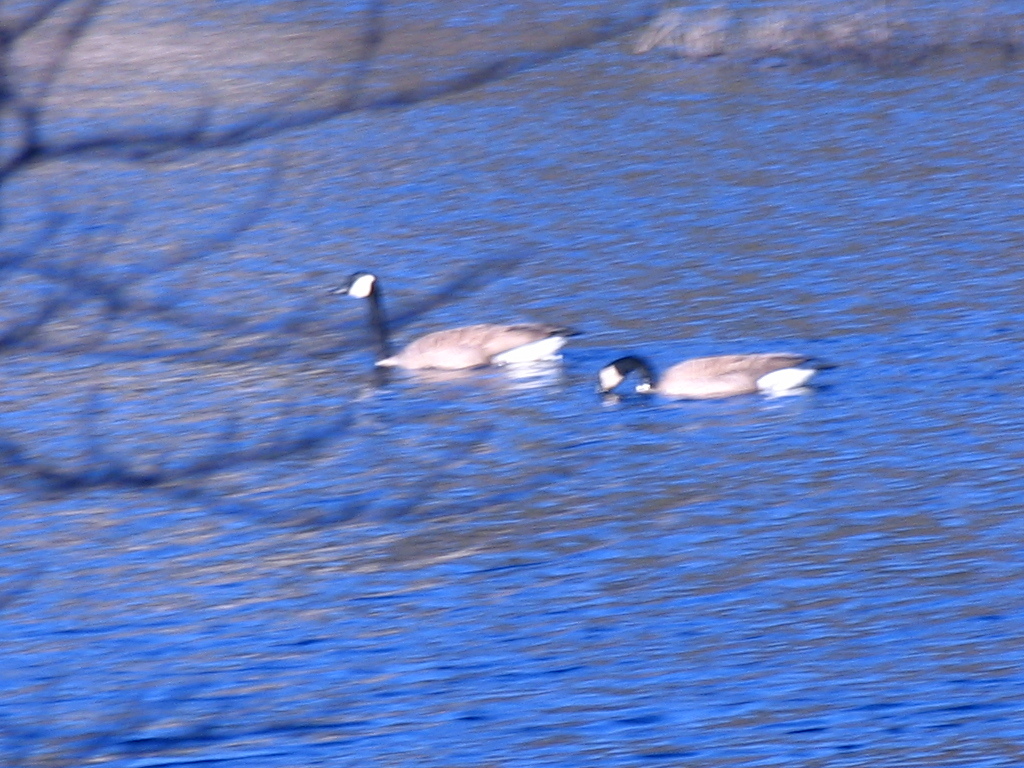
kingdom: Animalia
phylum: Chordata
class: Aves
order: Anseriformes
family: Anatidae
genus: Branta
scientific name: Branta canadensis
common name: Canada goose
